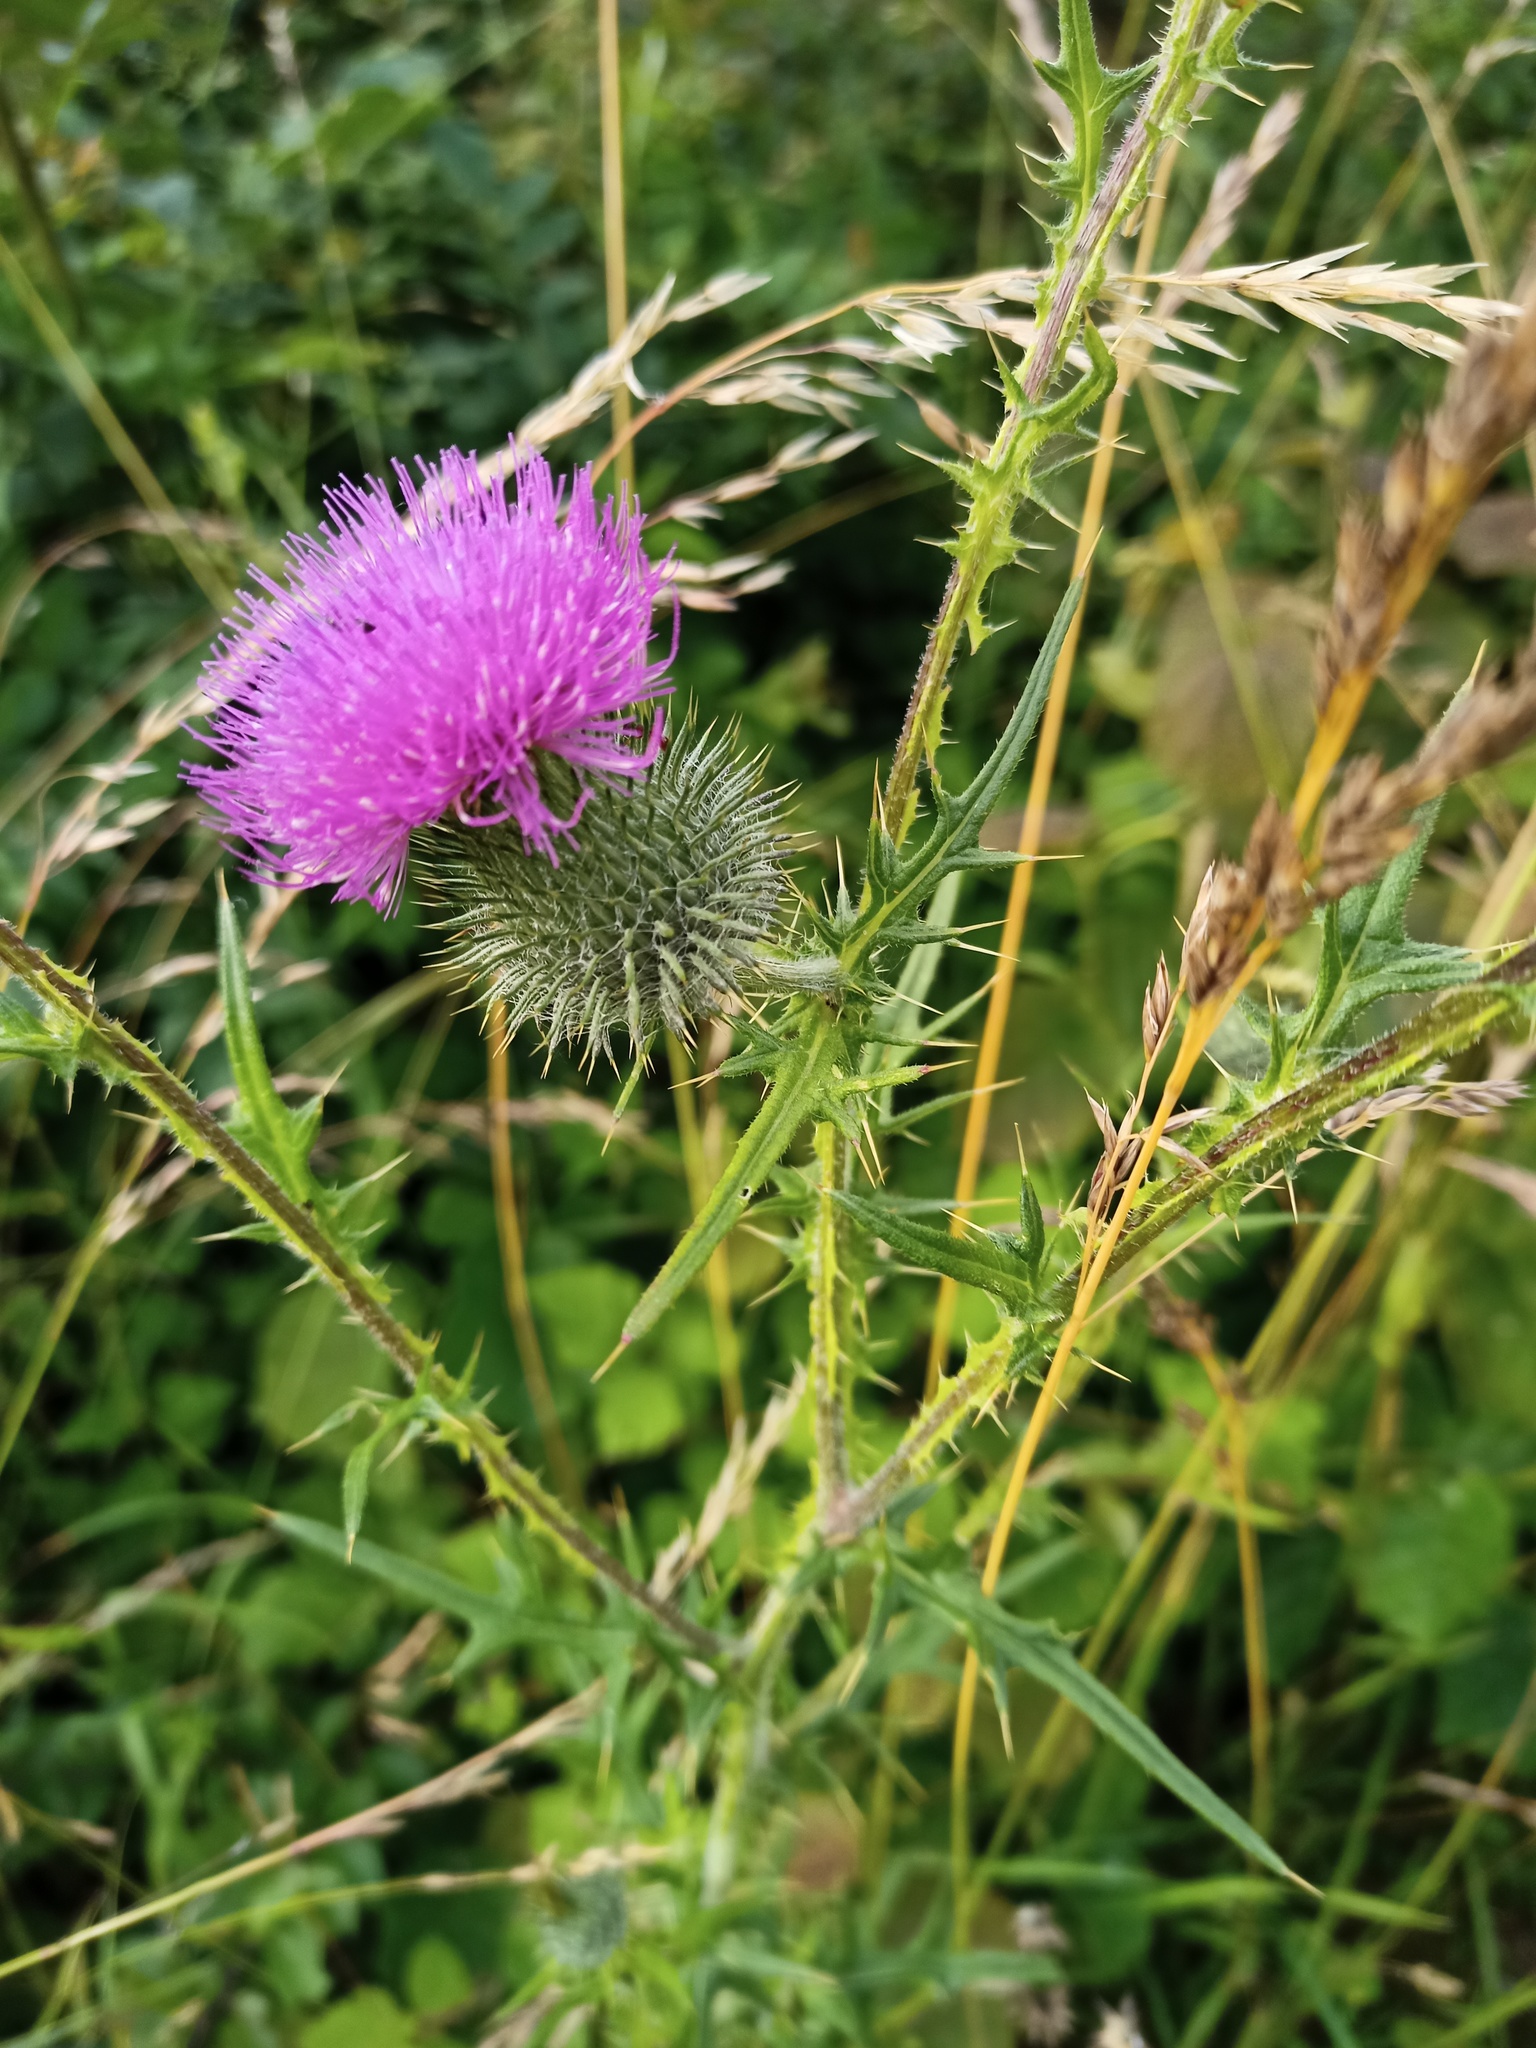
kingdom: Plantae
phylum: Tracheophyta
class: Magnoliopsida
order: Asterales
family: Asteraceae
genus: Cirsium
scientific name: Cirsium vulgare
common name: Bull thistle
